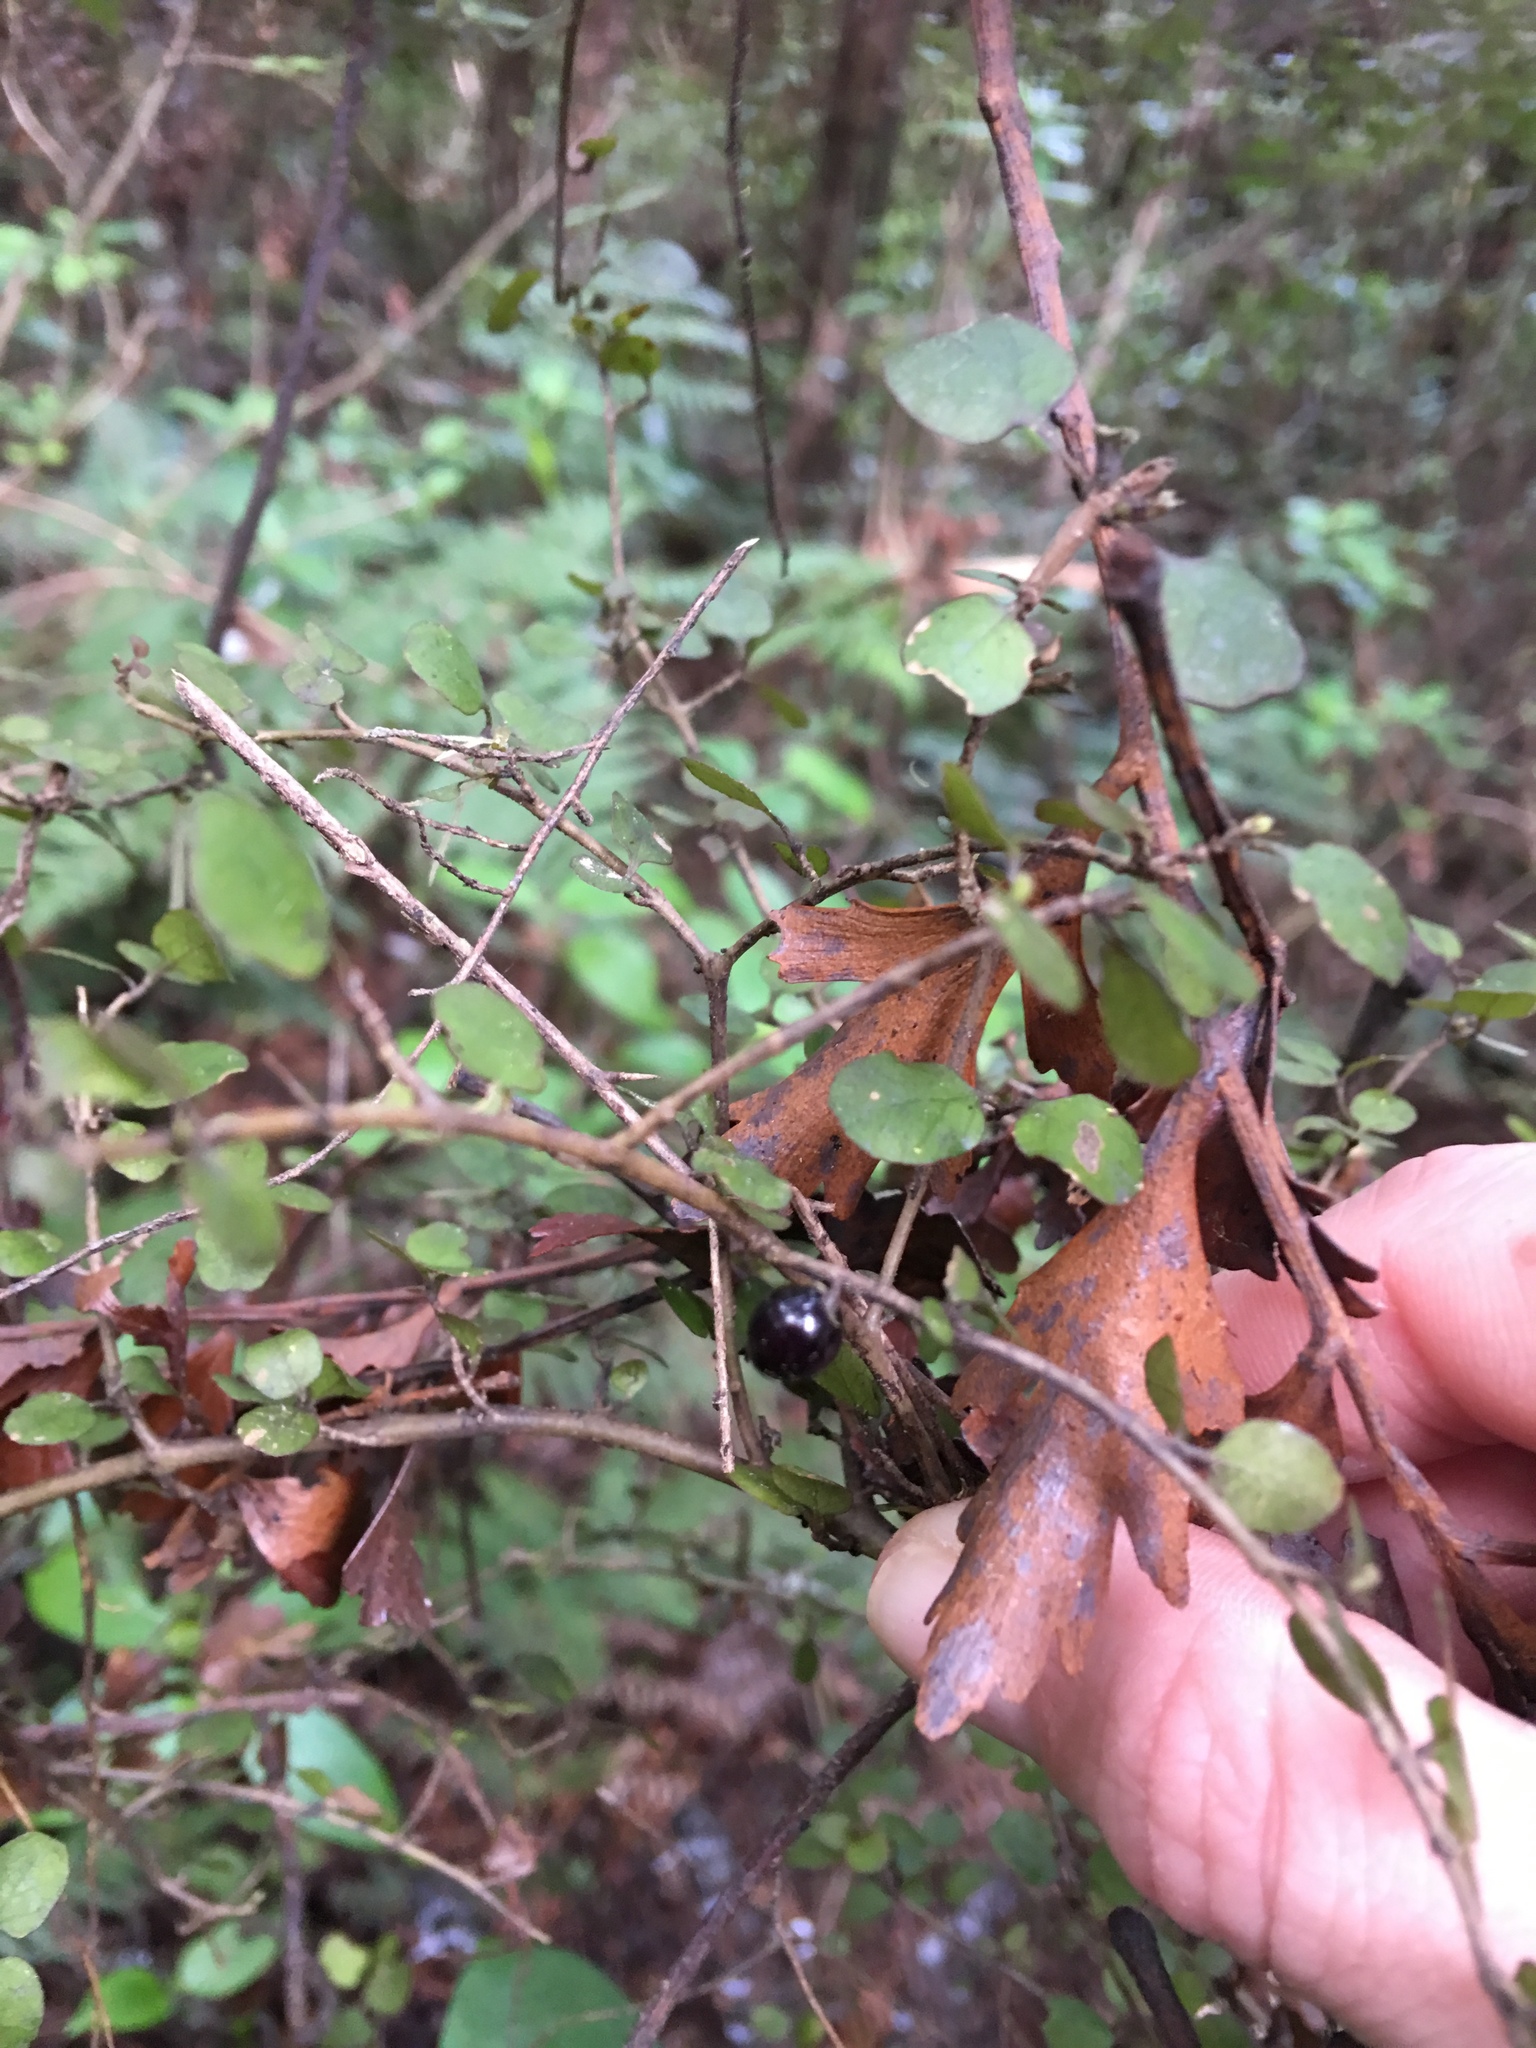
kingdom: Plantae
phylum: Tracheophyta
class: Magnoliopsida
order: Gentianales
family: Rubiaceae
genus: Coprosma
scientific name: Coprosma rhamnoides
